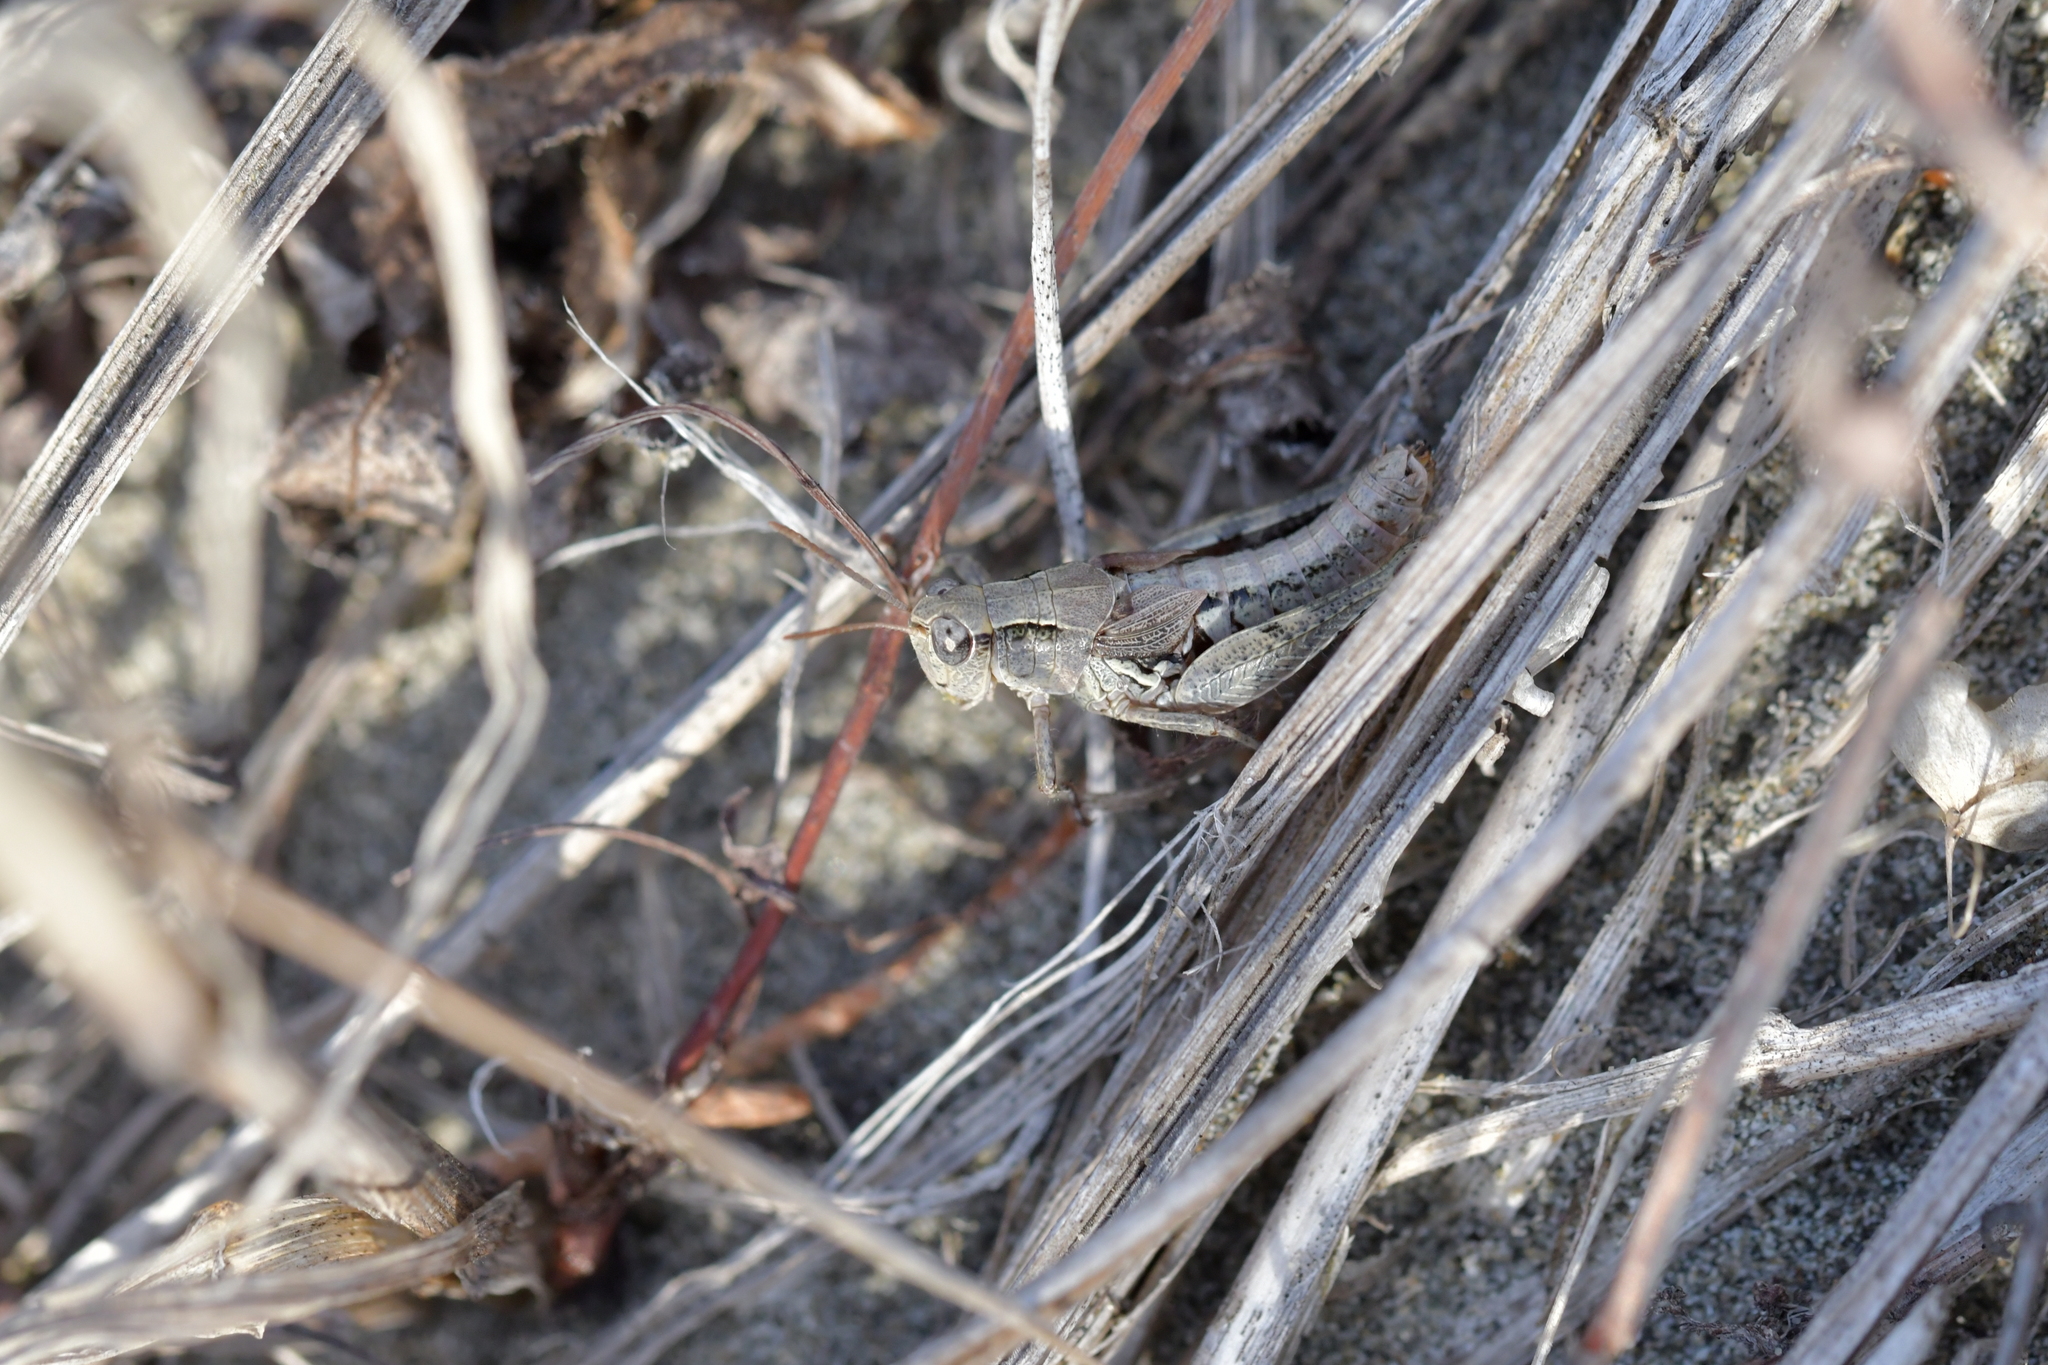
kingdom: Animalia
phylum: Arthropoda
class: Insecta
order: Orthoptera
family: Acrididae
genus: Phaulacridium
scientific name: Phaulacridium marginale
